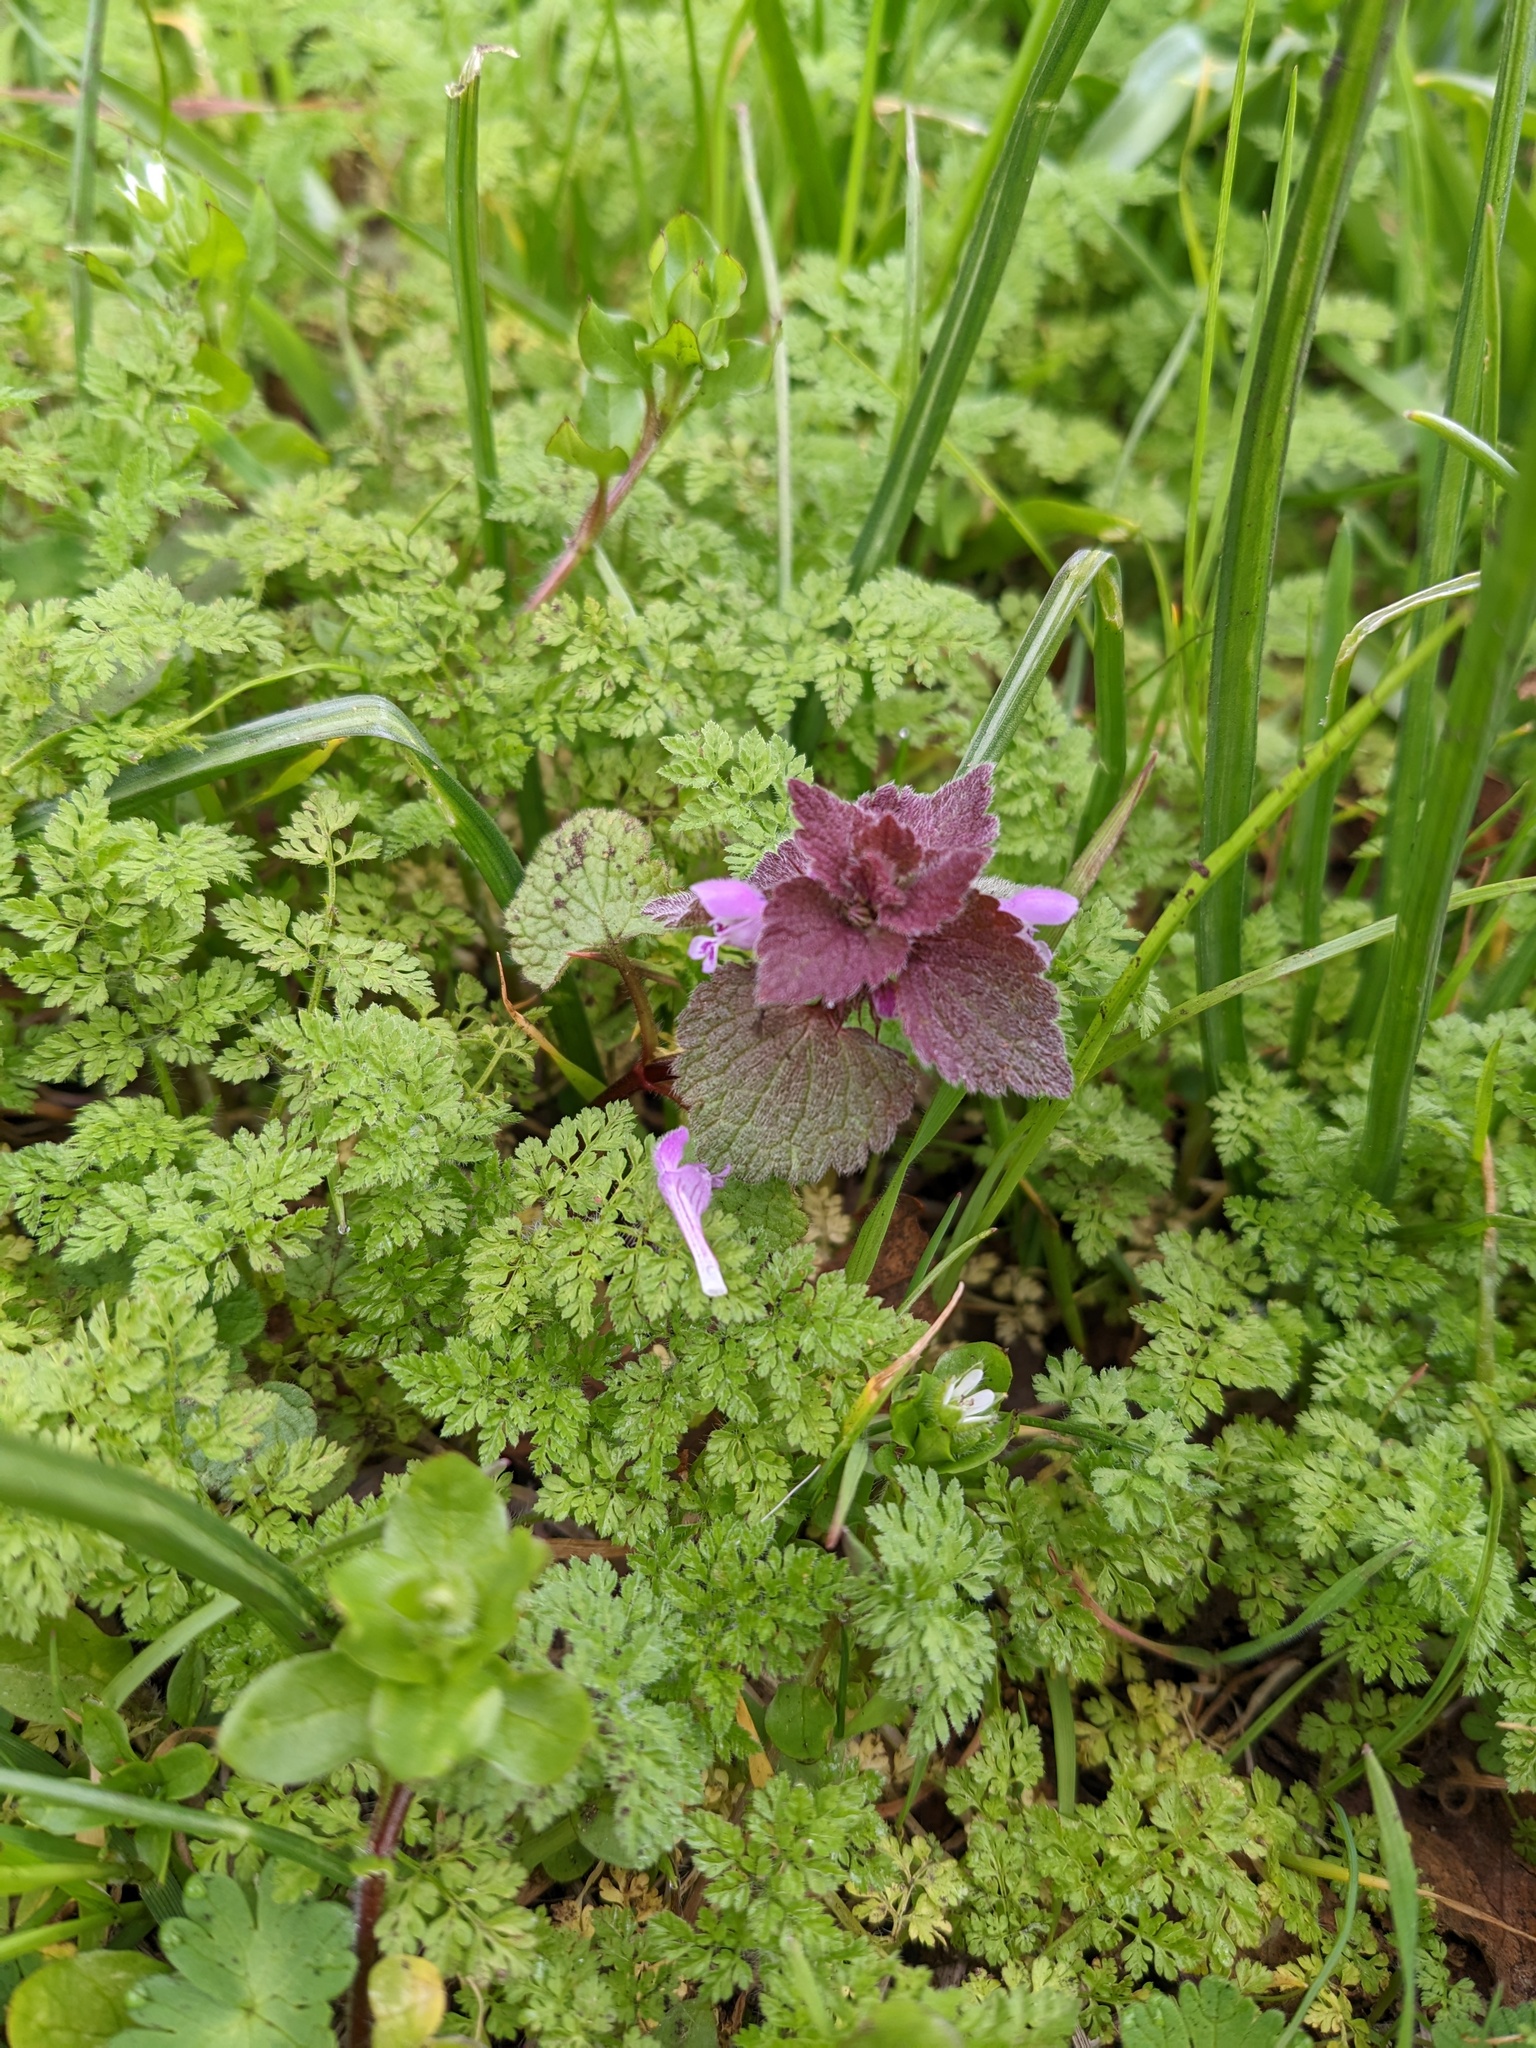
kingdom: Plantae
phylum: Tracheophyta
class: Magnoliopsida
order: Lamiales
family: Lamiaceae
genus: Lamium
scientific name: Lamium purpureum
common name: Red dead-nettle
